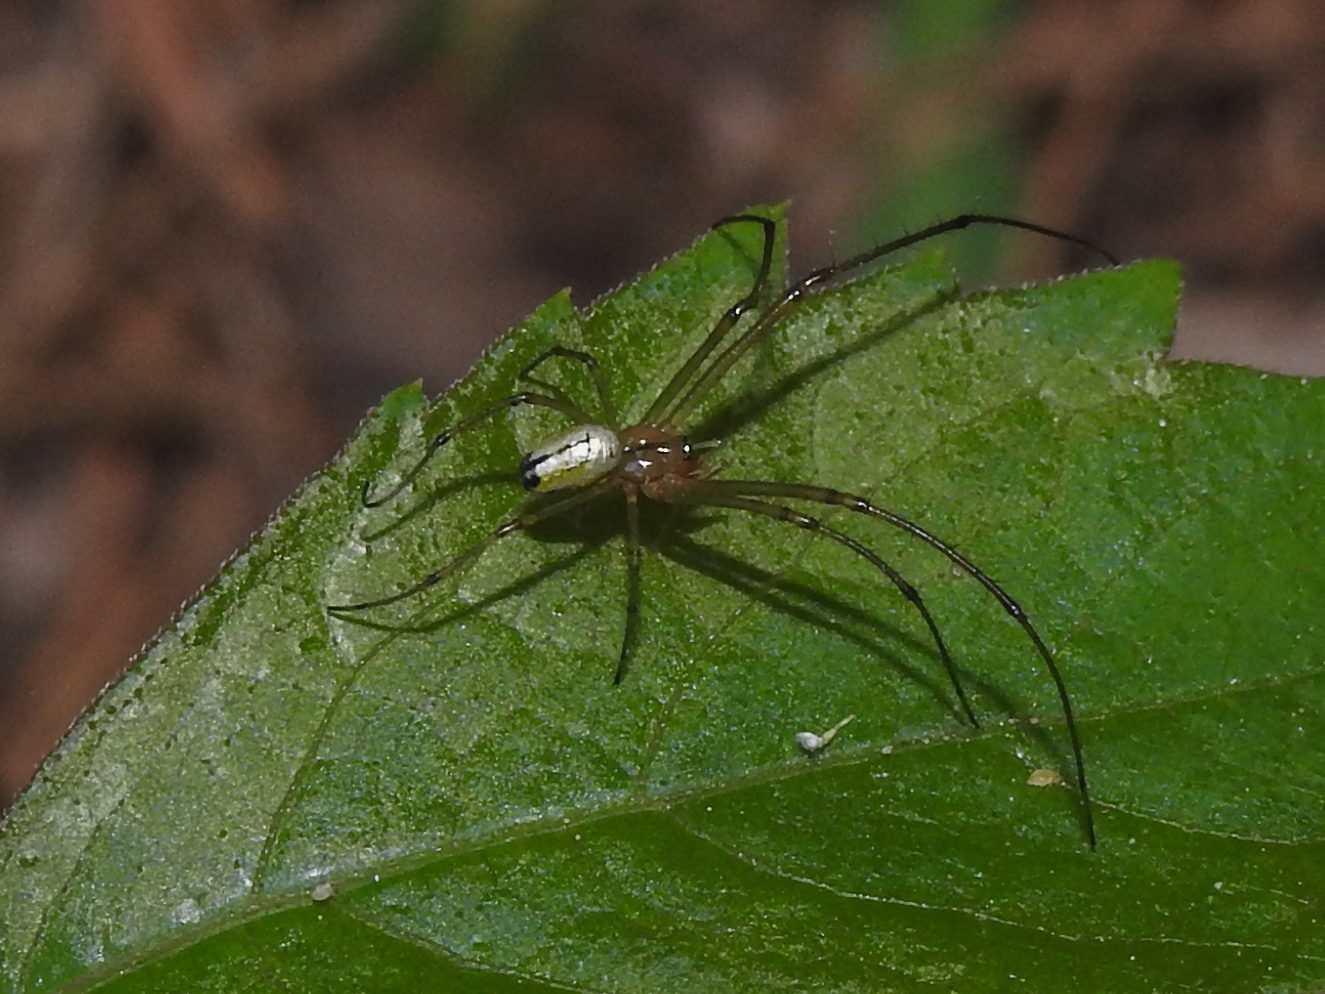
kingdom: Animalia
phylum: Arthropoda
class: Arachnida
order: Araneae
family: Tetragnathidae
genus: Leucauge
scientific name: Leucauge venusta
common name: Longjawed orb weavers
